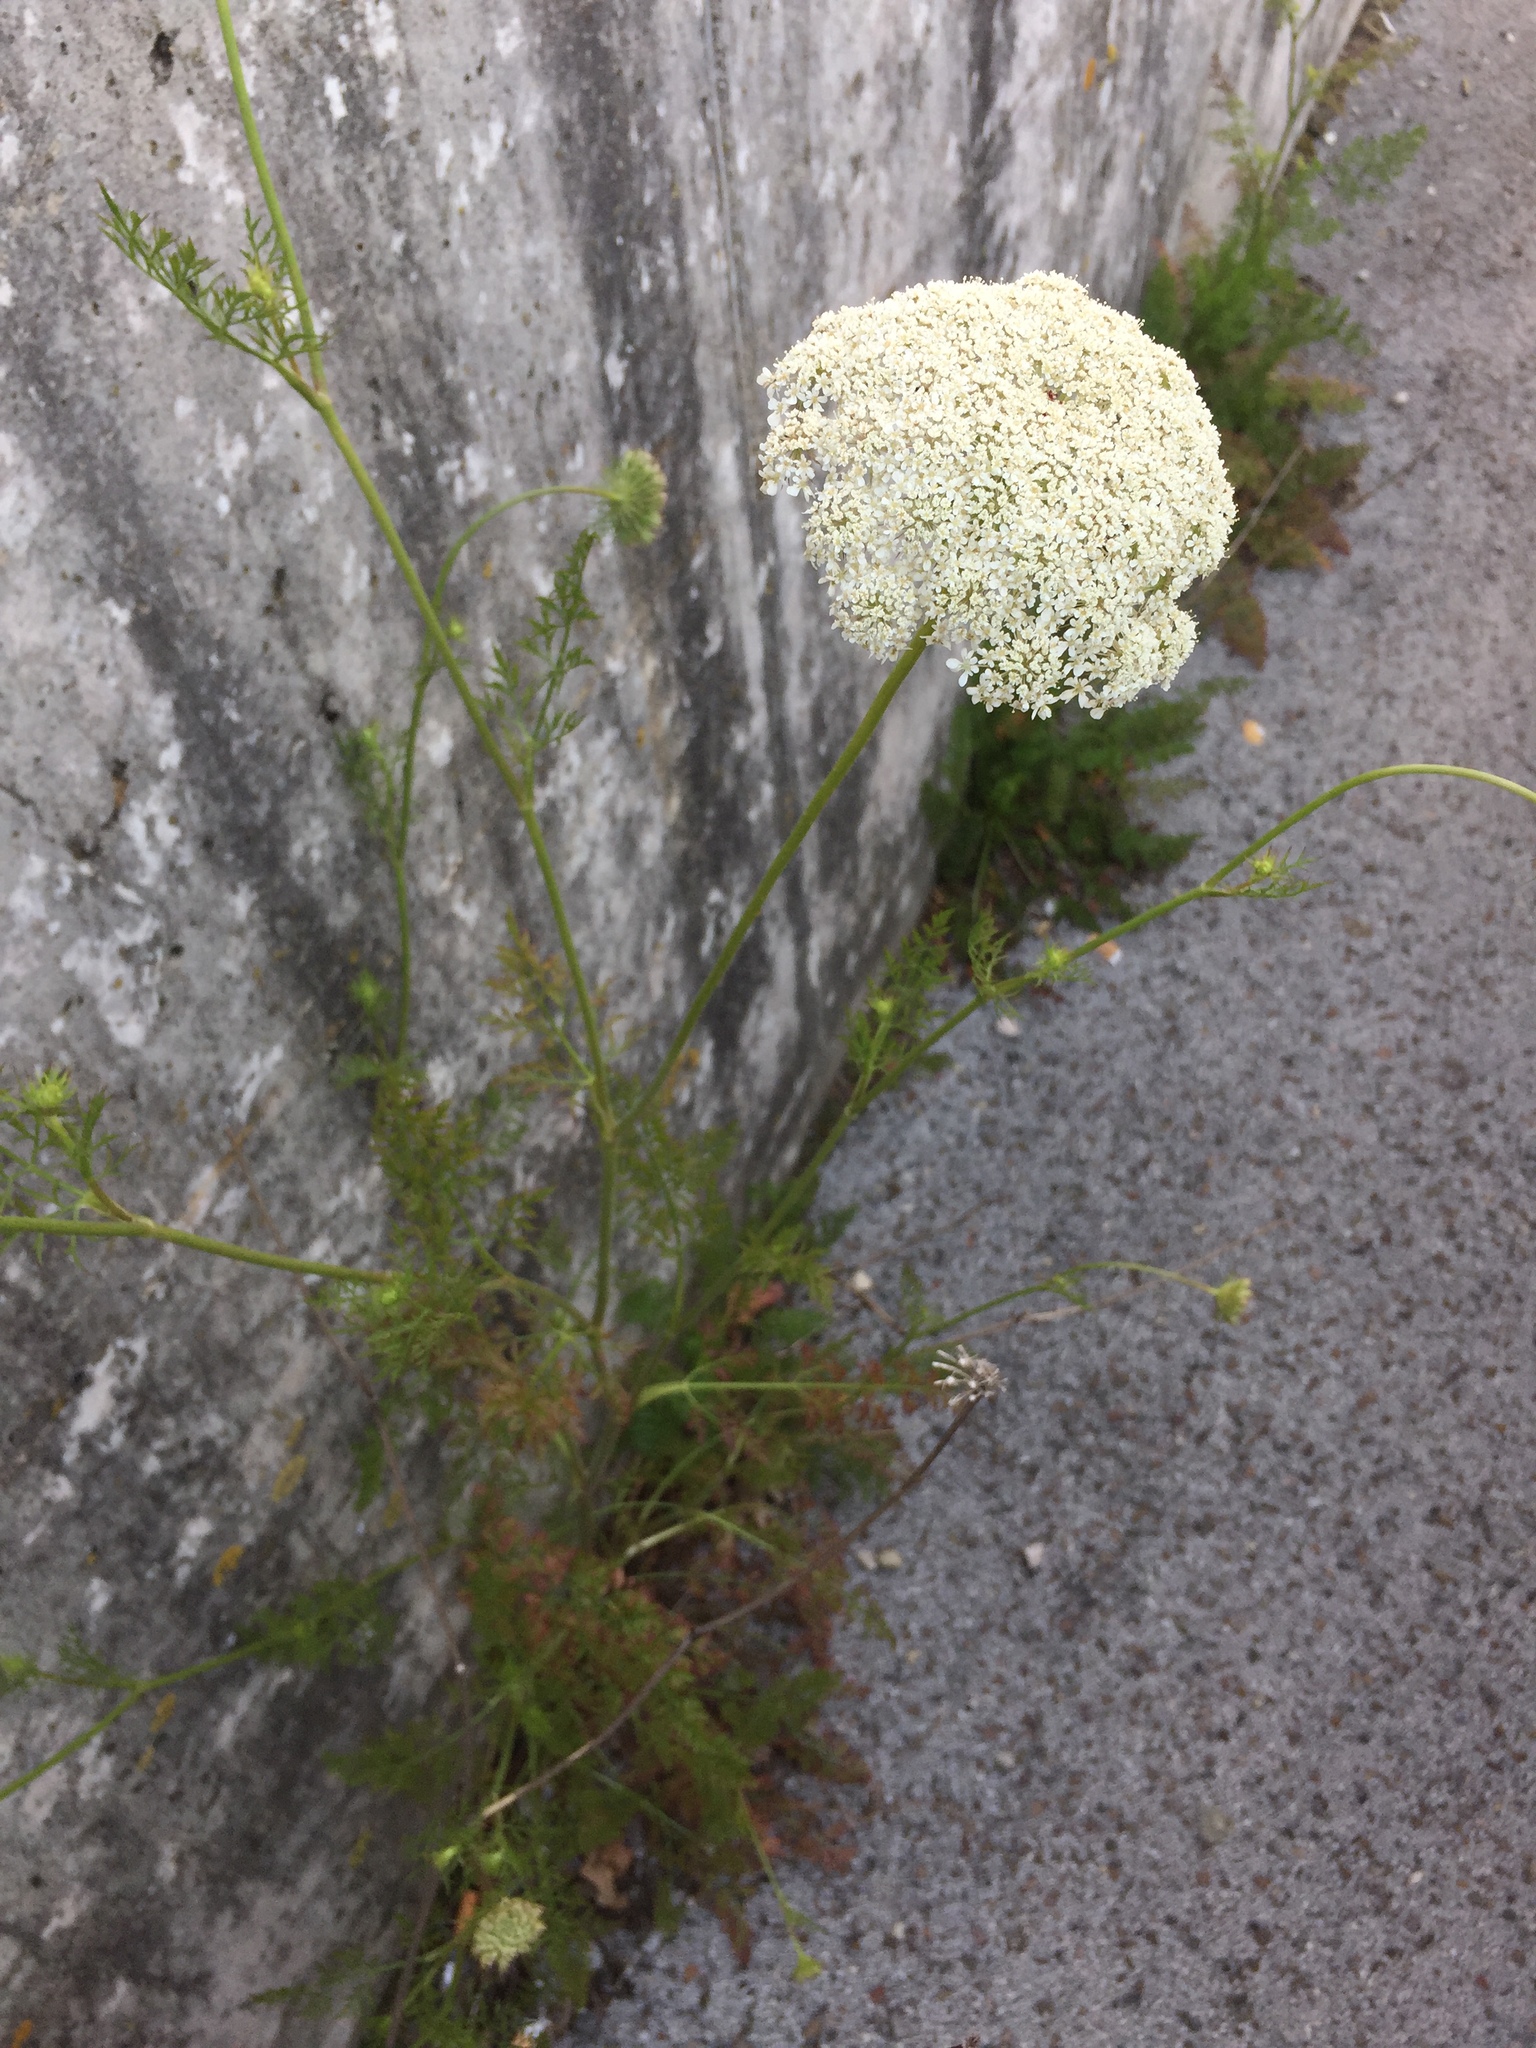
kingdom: Plantae
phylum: Tracheophyta
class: Magnoliopsida
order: Apiales
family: Apiaceae
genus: Daucus
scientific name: Daucus carota
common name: Wild carrot
